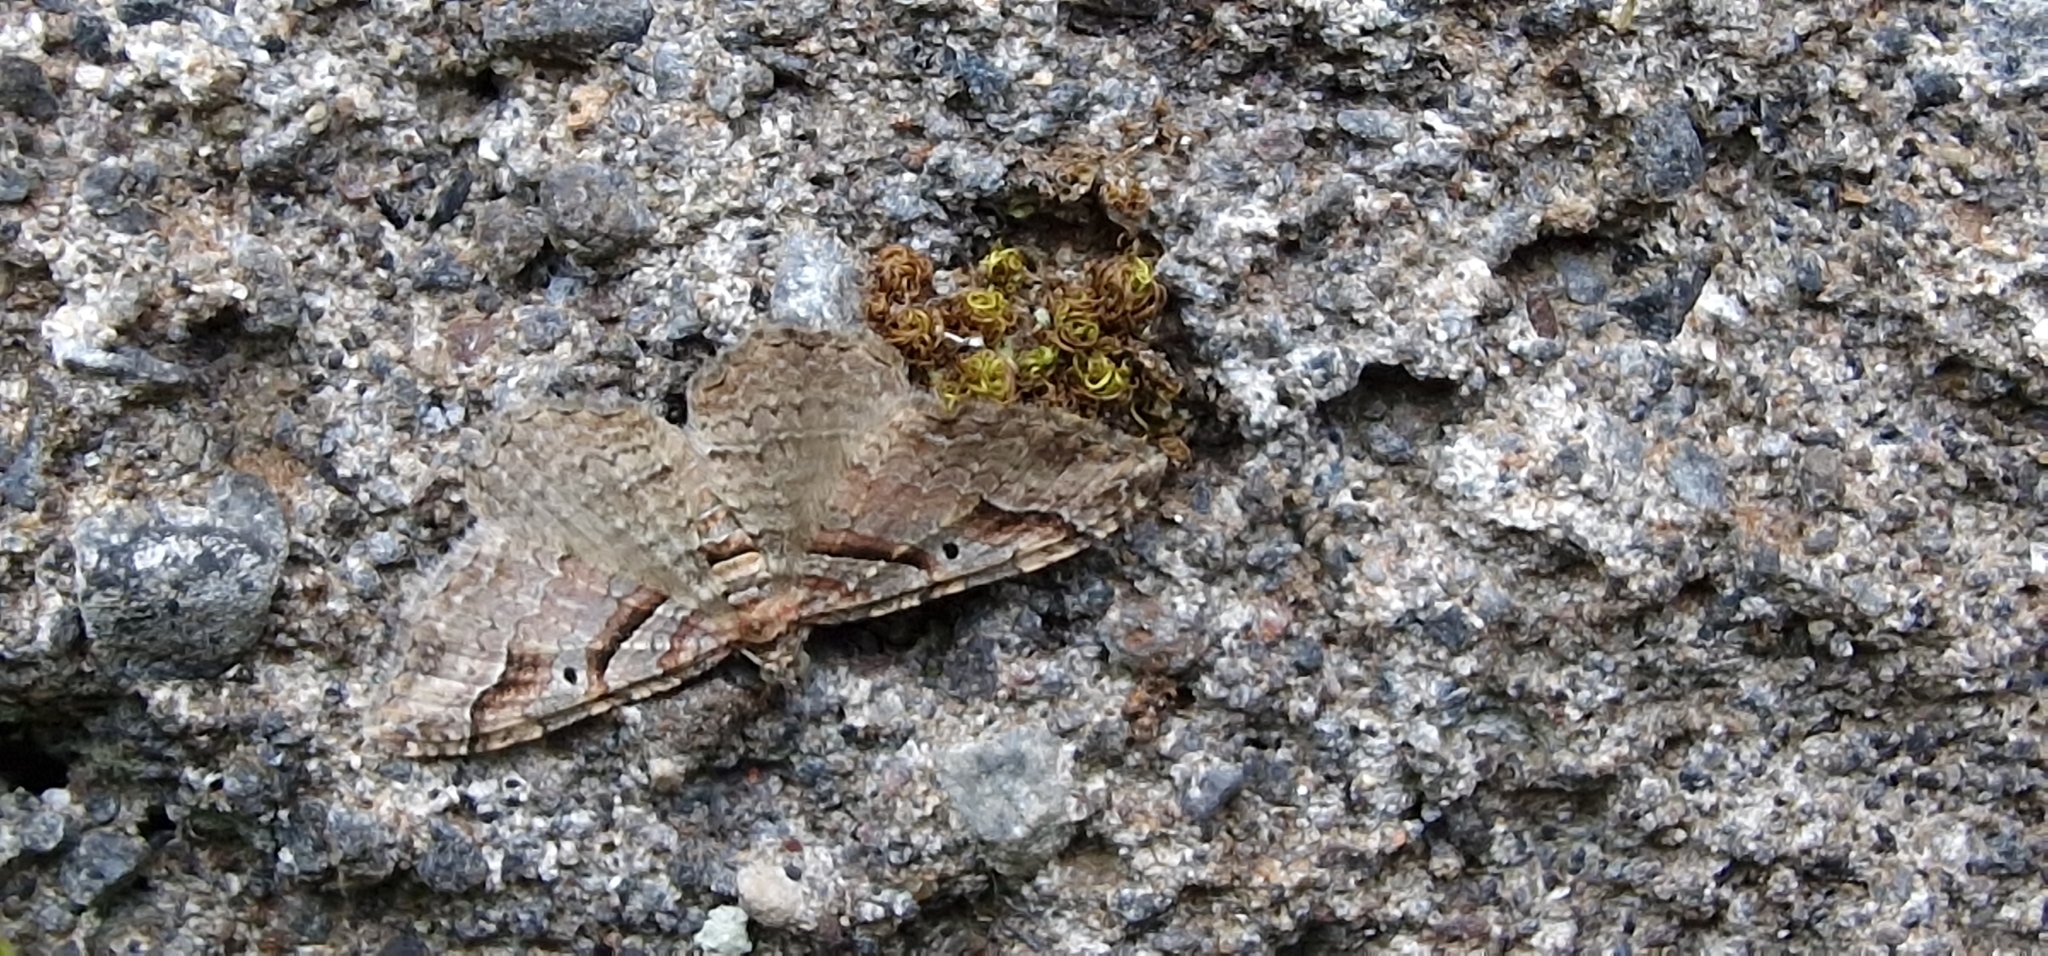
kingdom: Animalia
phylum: Arthropoda
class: Insecta
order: Lepidoptera
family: Geometridae
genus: Costaconvexa
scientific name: Costaconvexa centrostrigaria
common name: Bent-line carpet
